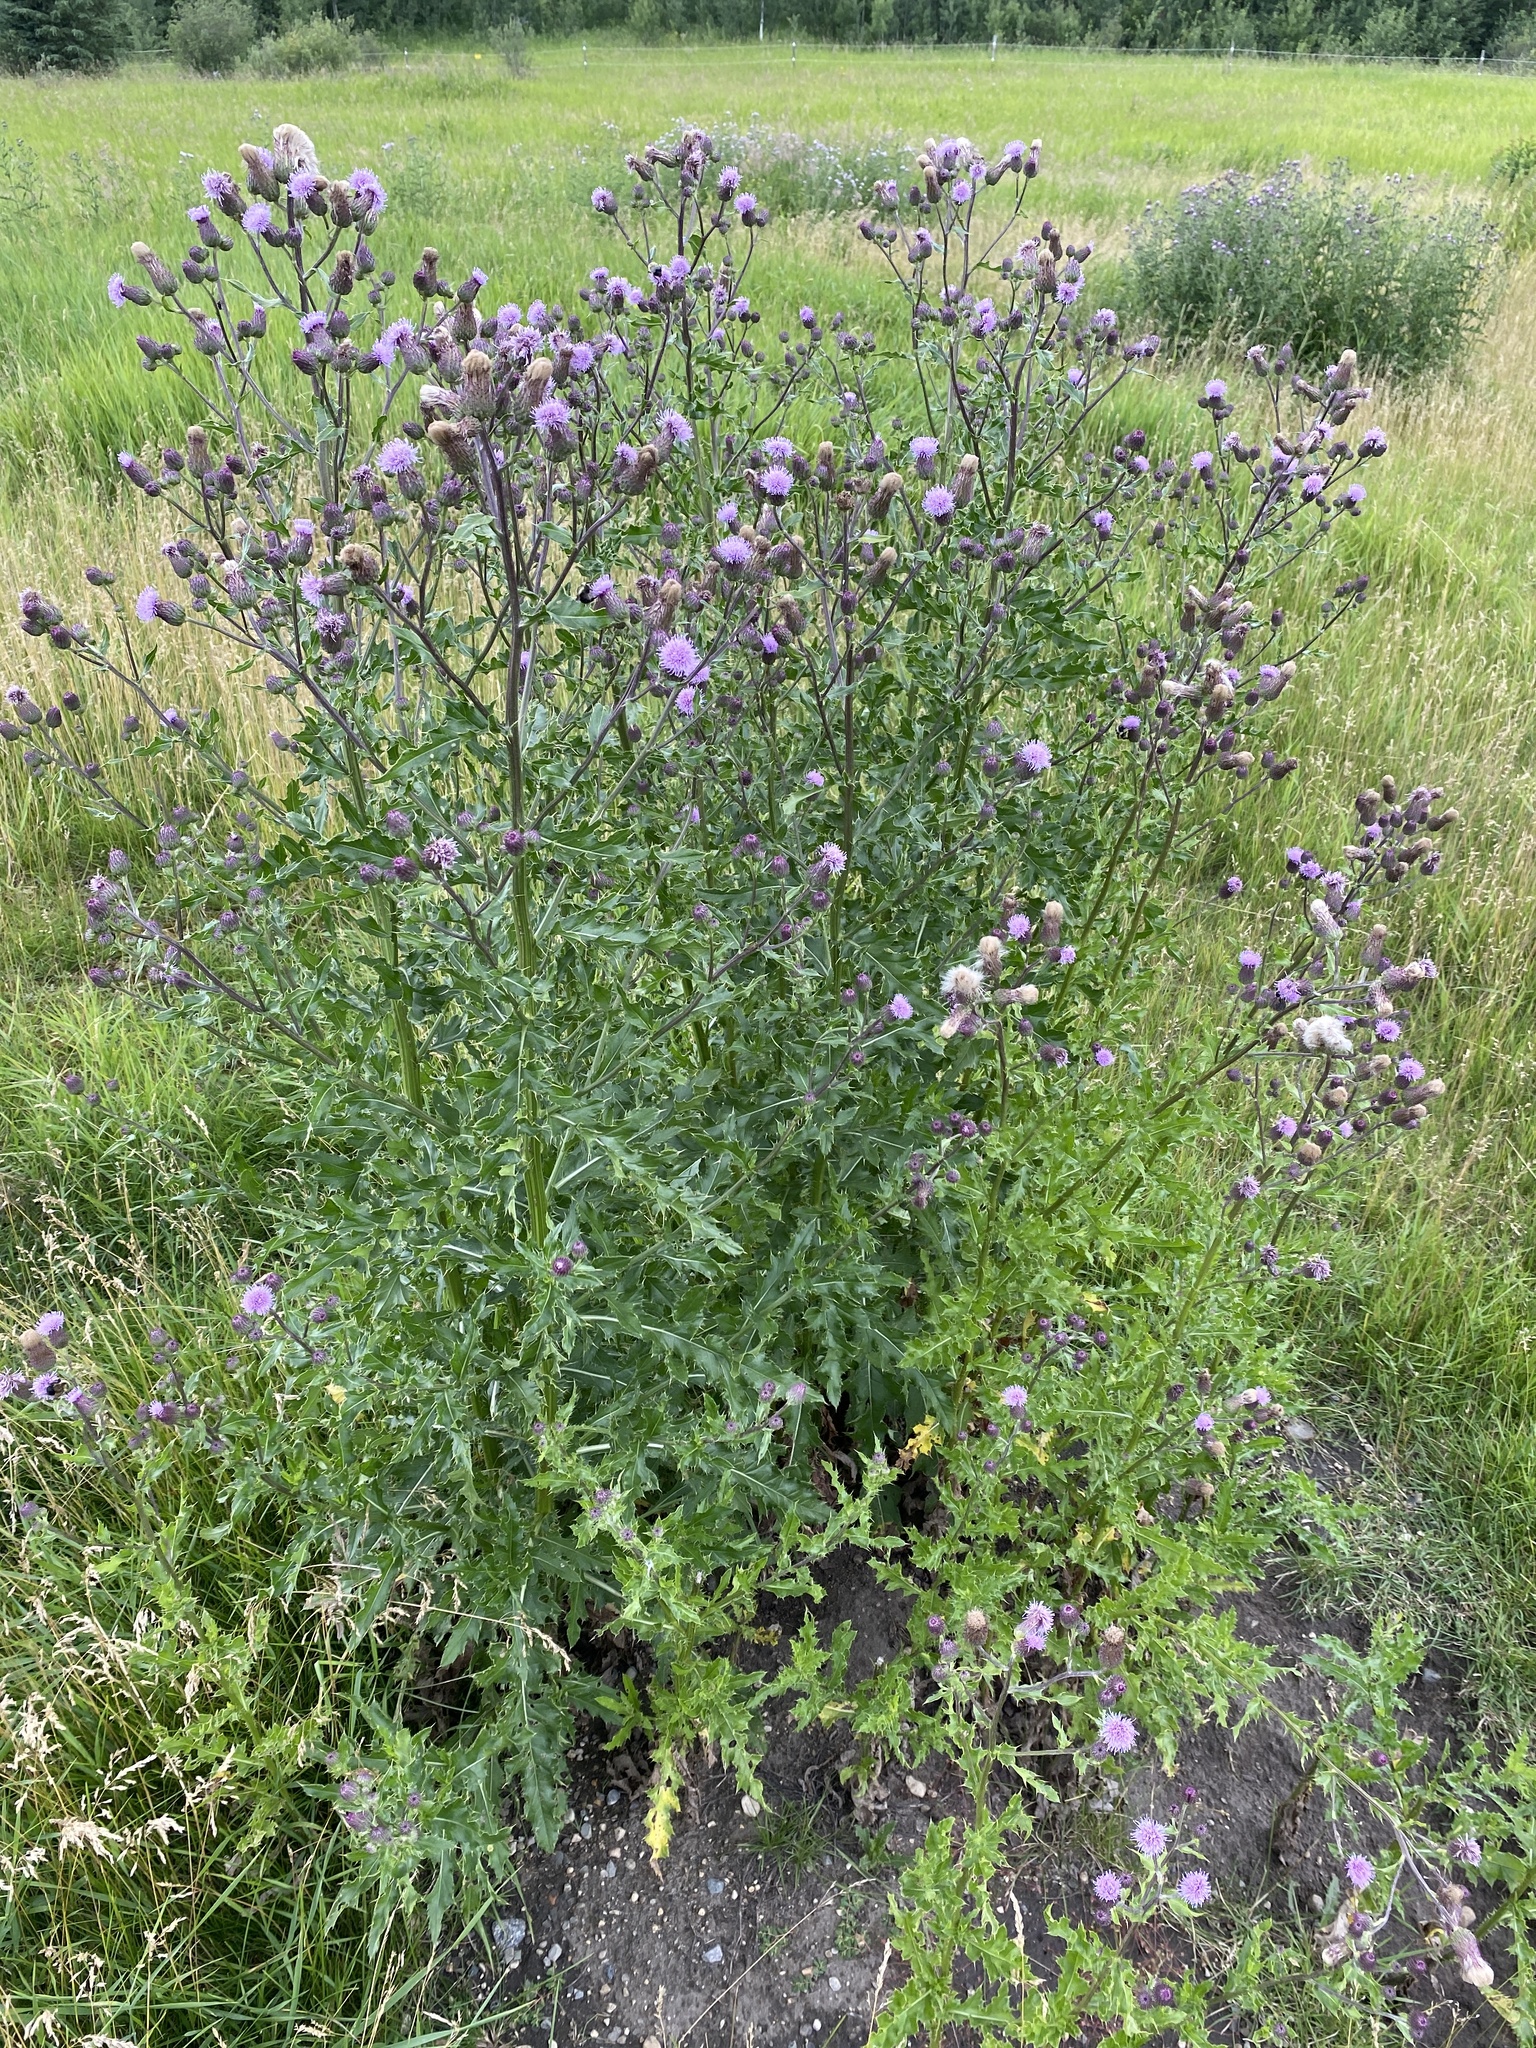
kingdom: Plantae
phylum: Tracheophyta
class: Magnoliopsida
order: Asterales
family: Asteraceae
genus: Cirsium
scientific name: Cirsium arvense
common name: Creeping thistle
